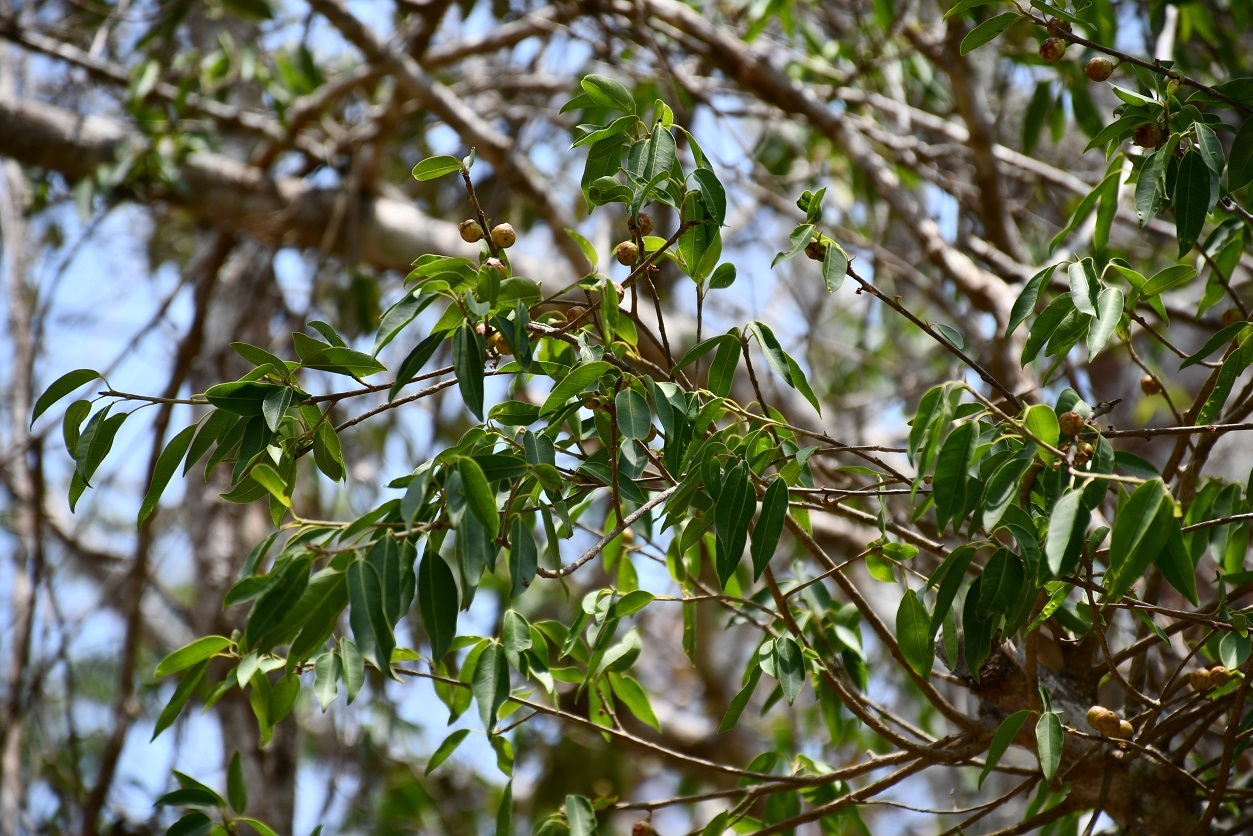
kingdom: Plantae
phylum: Tracheophyta
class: Magnoliopsida
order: Rosales
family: Moraceae
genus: Ficus
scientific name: Ficus pertusa
